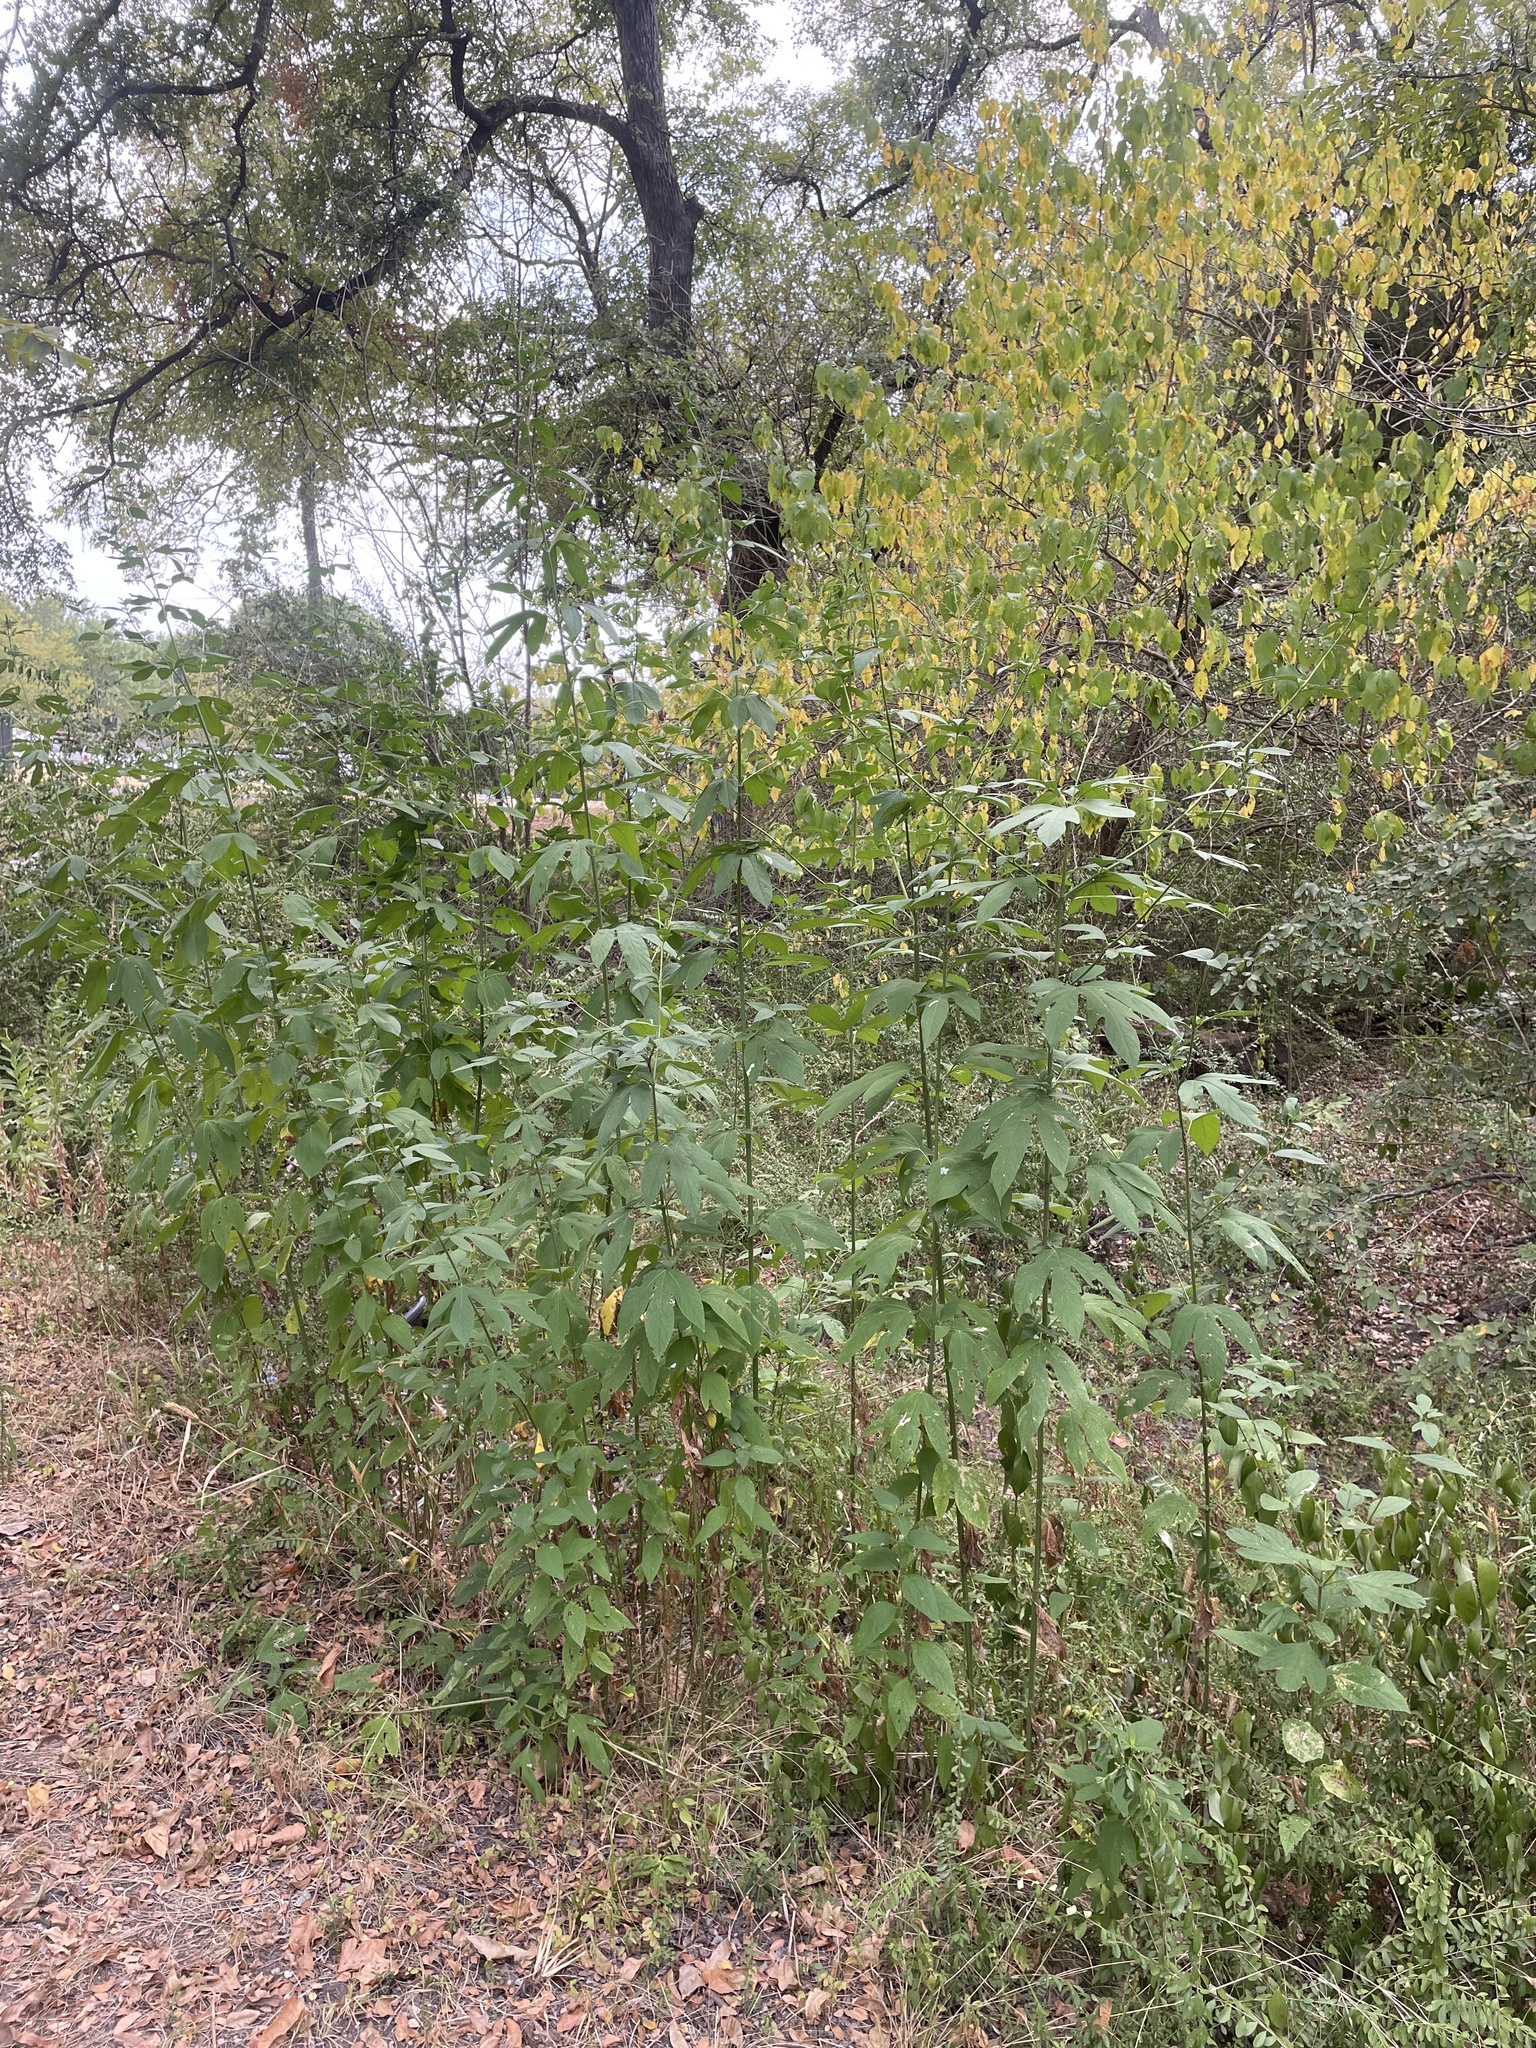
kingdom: Plantae
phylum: Tracheophyta
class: Magnoliopsida
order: Asterales
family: Asteraceae
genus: Ambrosia
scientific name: Ambrosia trifida
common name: Giant ragweed
